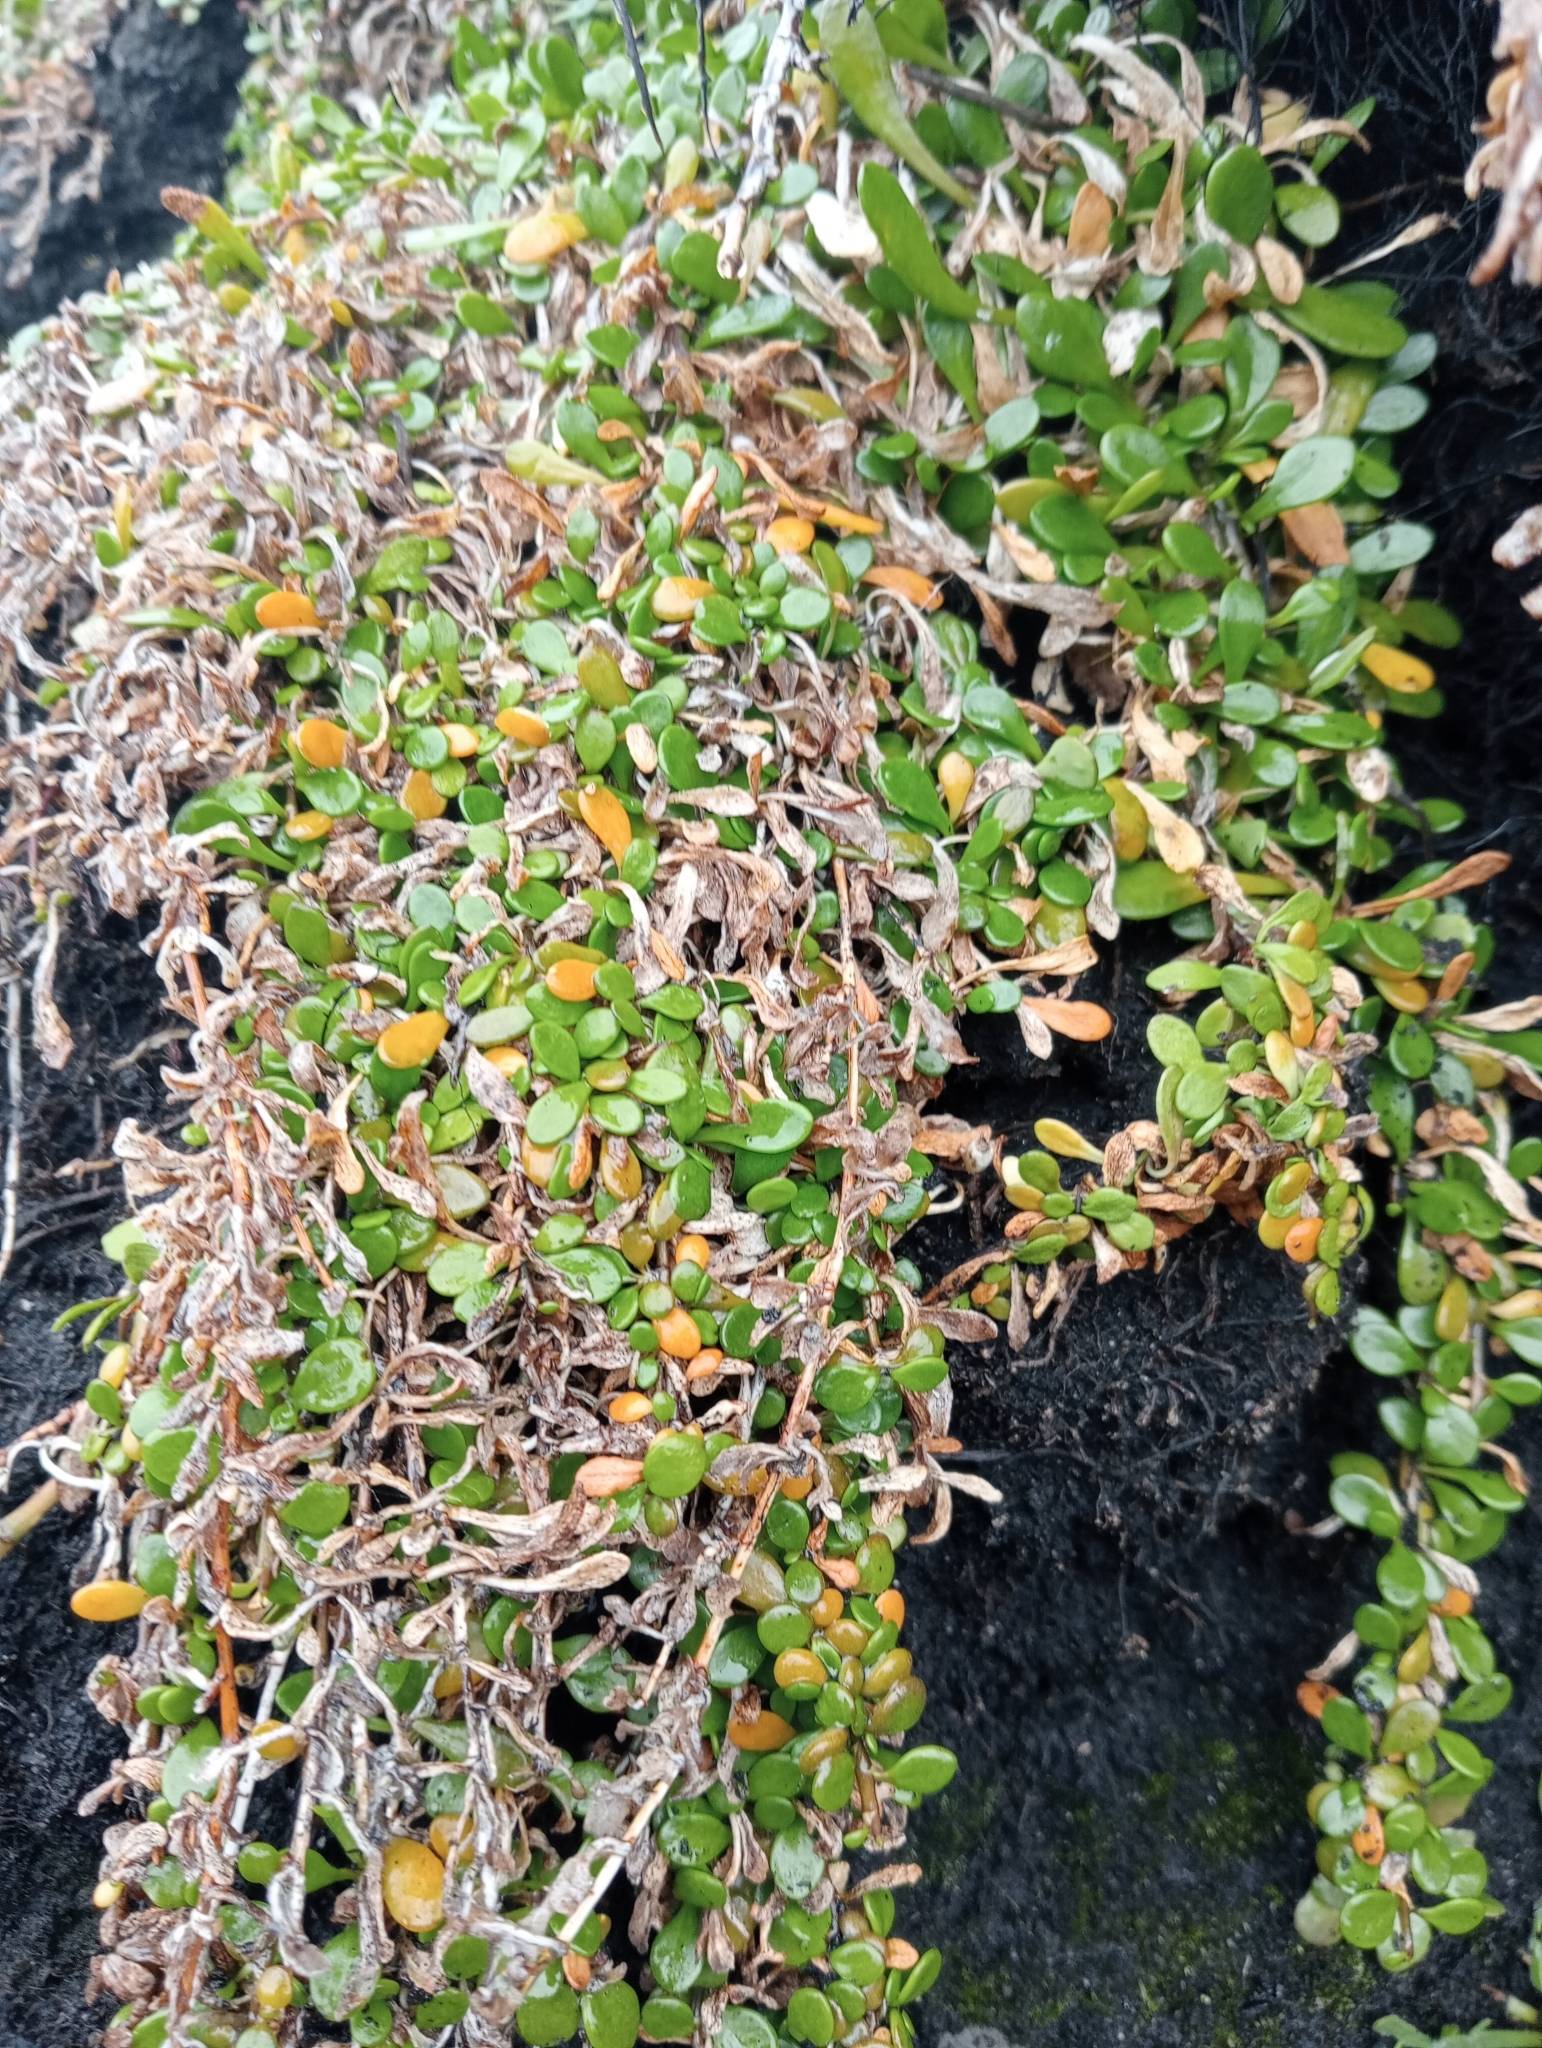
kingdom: Plantae
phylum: Tracheophyta
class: Magnoliopsida
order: Asterales
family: Goodeniaceae
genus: Goodenia
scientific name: Goodenia radicans
